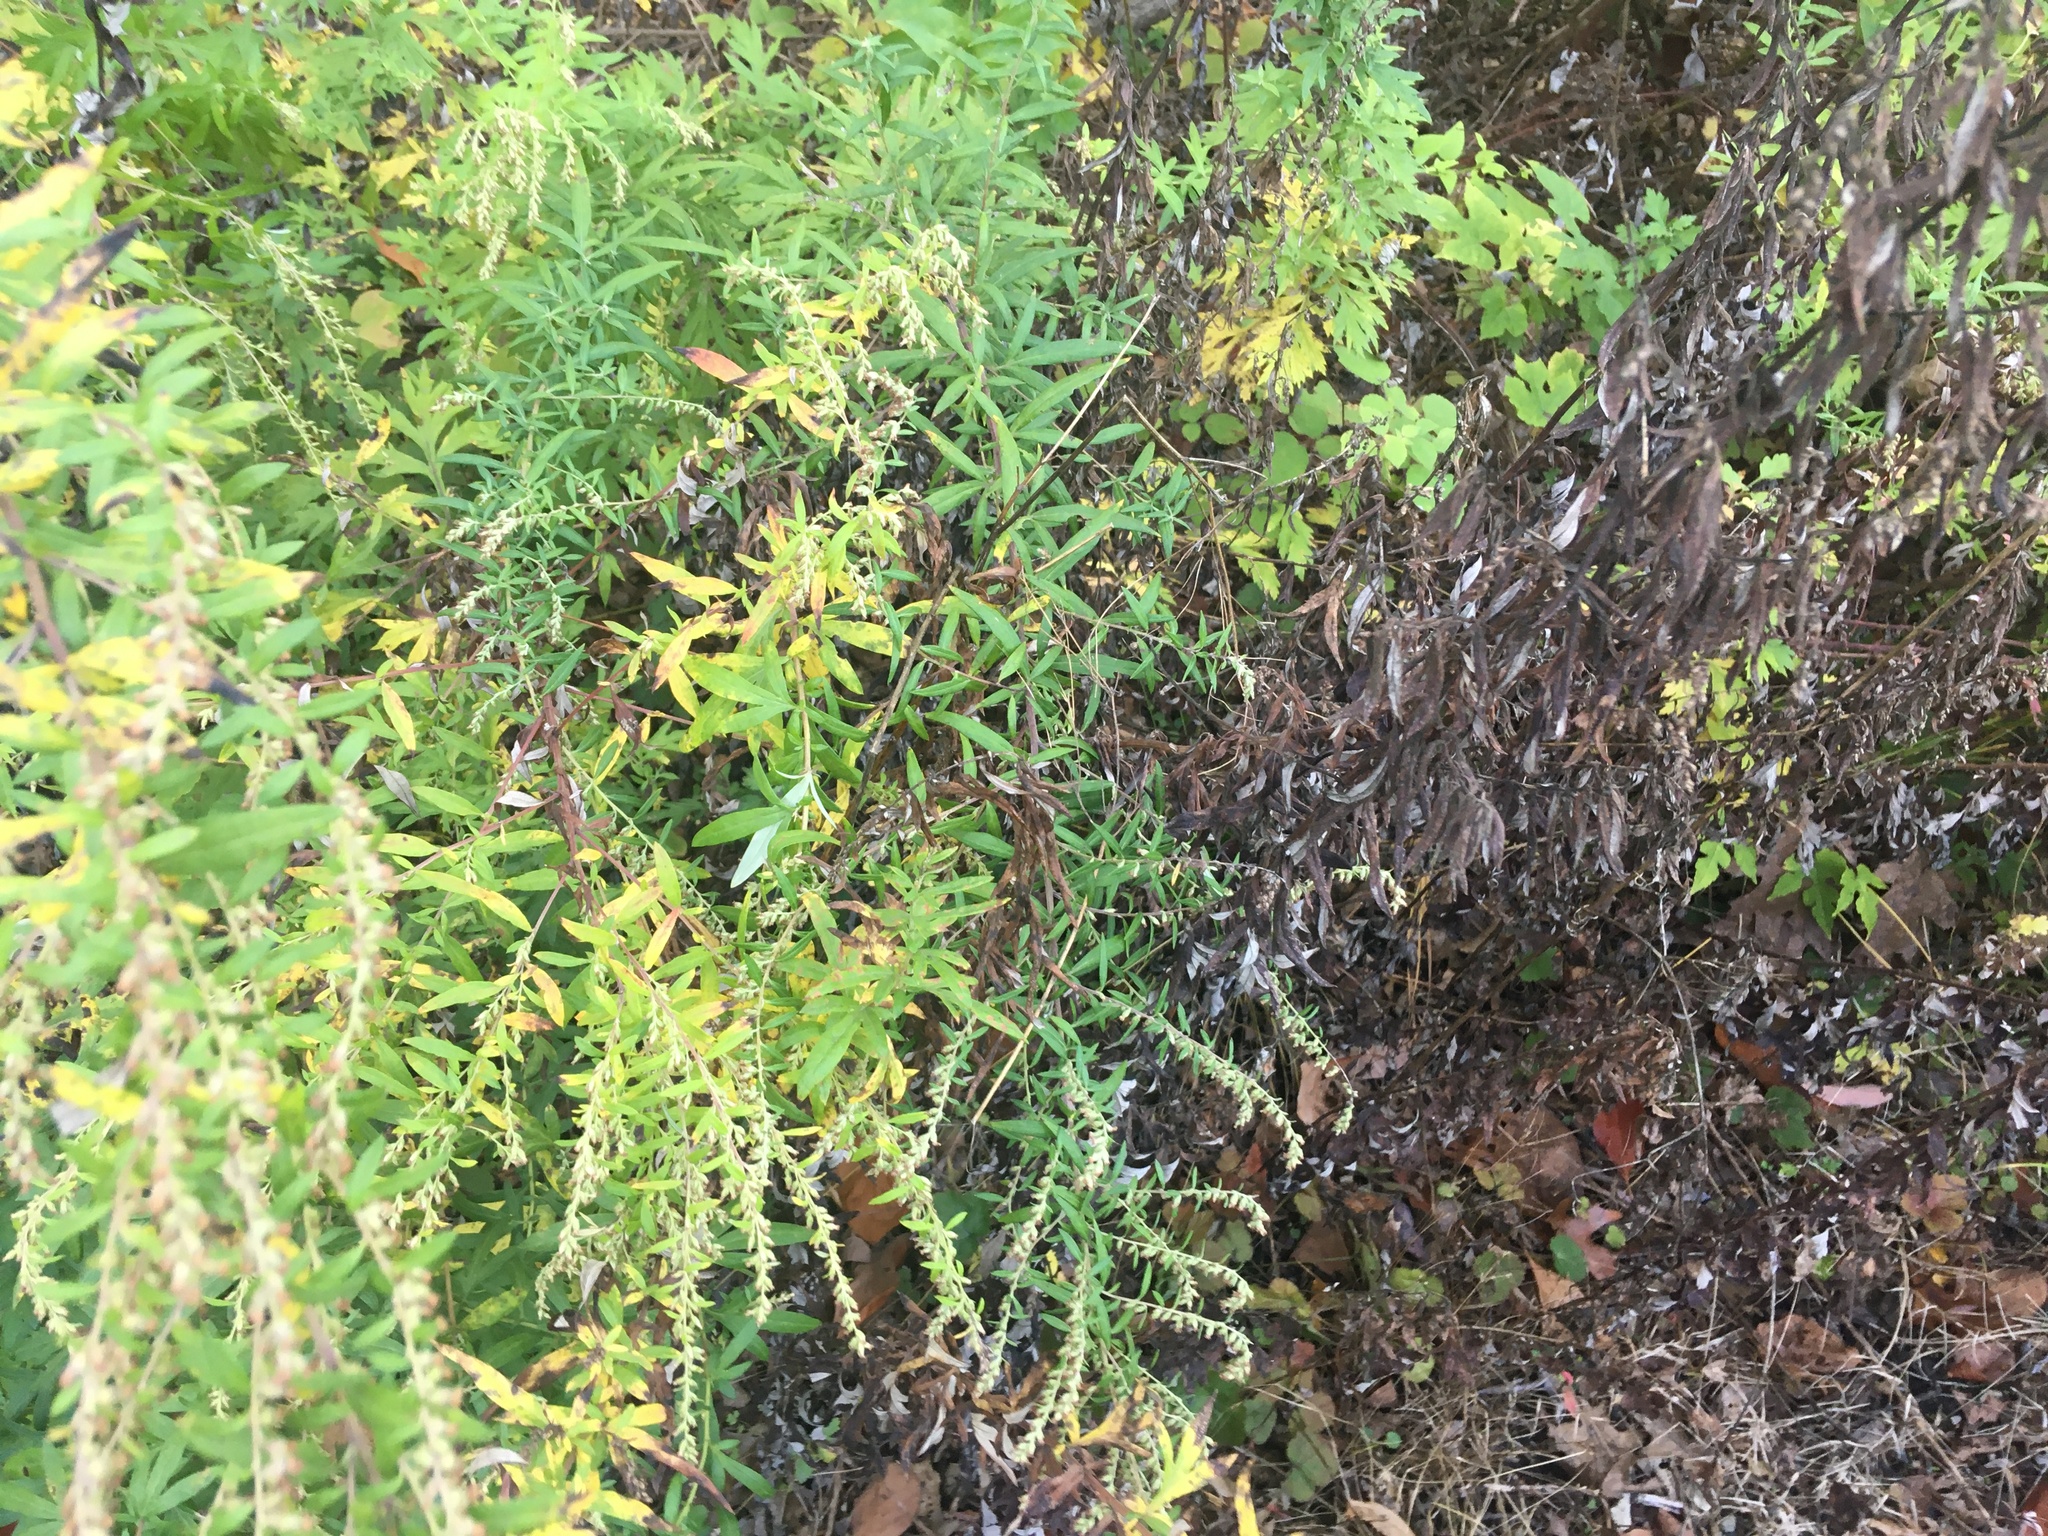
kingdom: Plantae
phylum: Tracheophyta
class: Magnoliopsida
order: Asterales
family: Asteraceae
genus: Artemisia
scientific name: Artemisia vulgaris
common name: Mugwort
